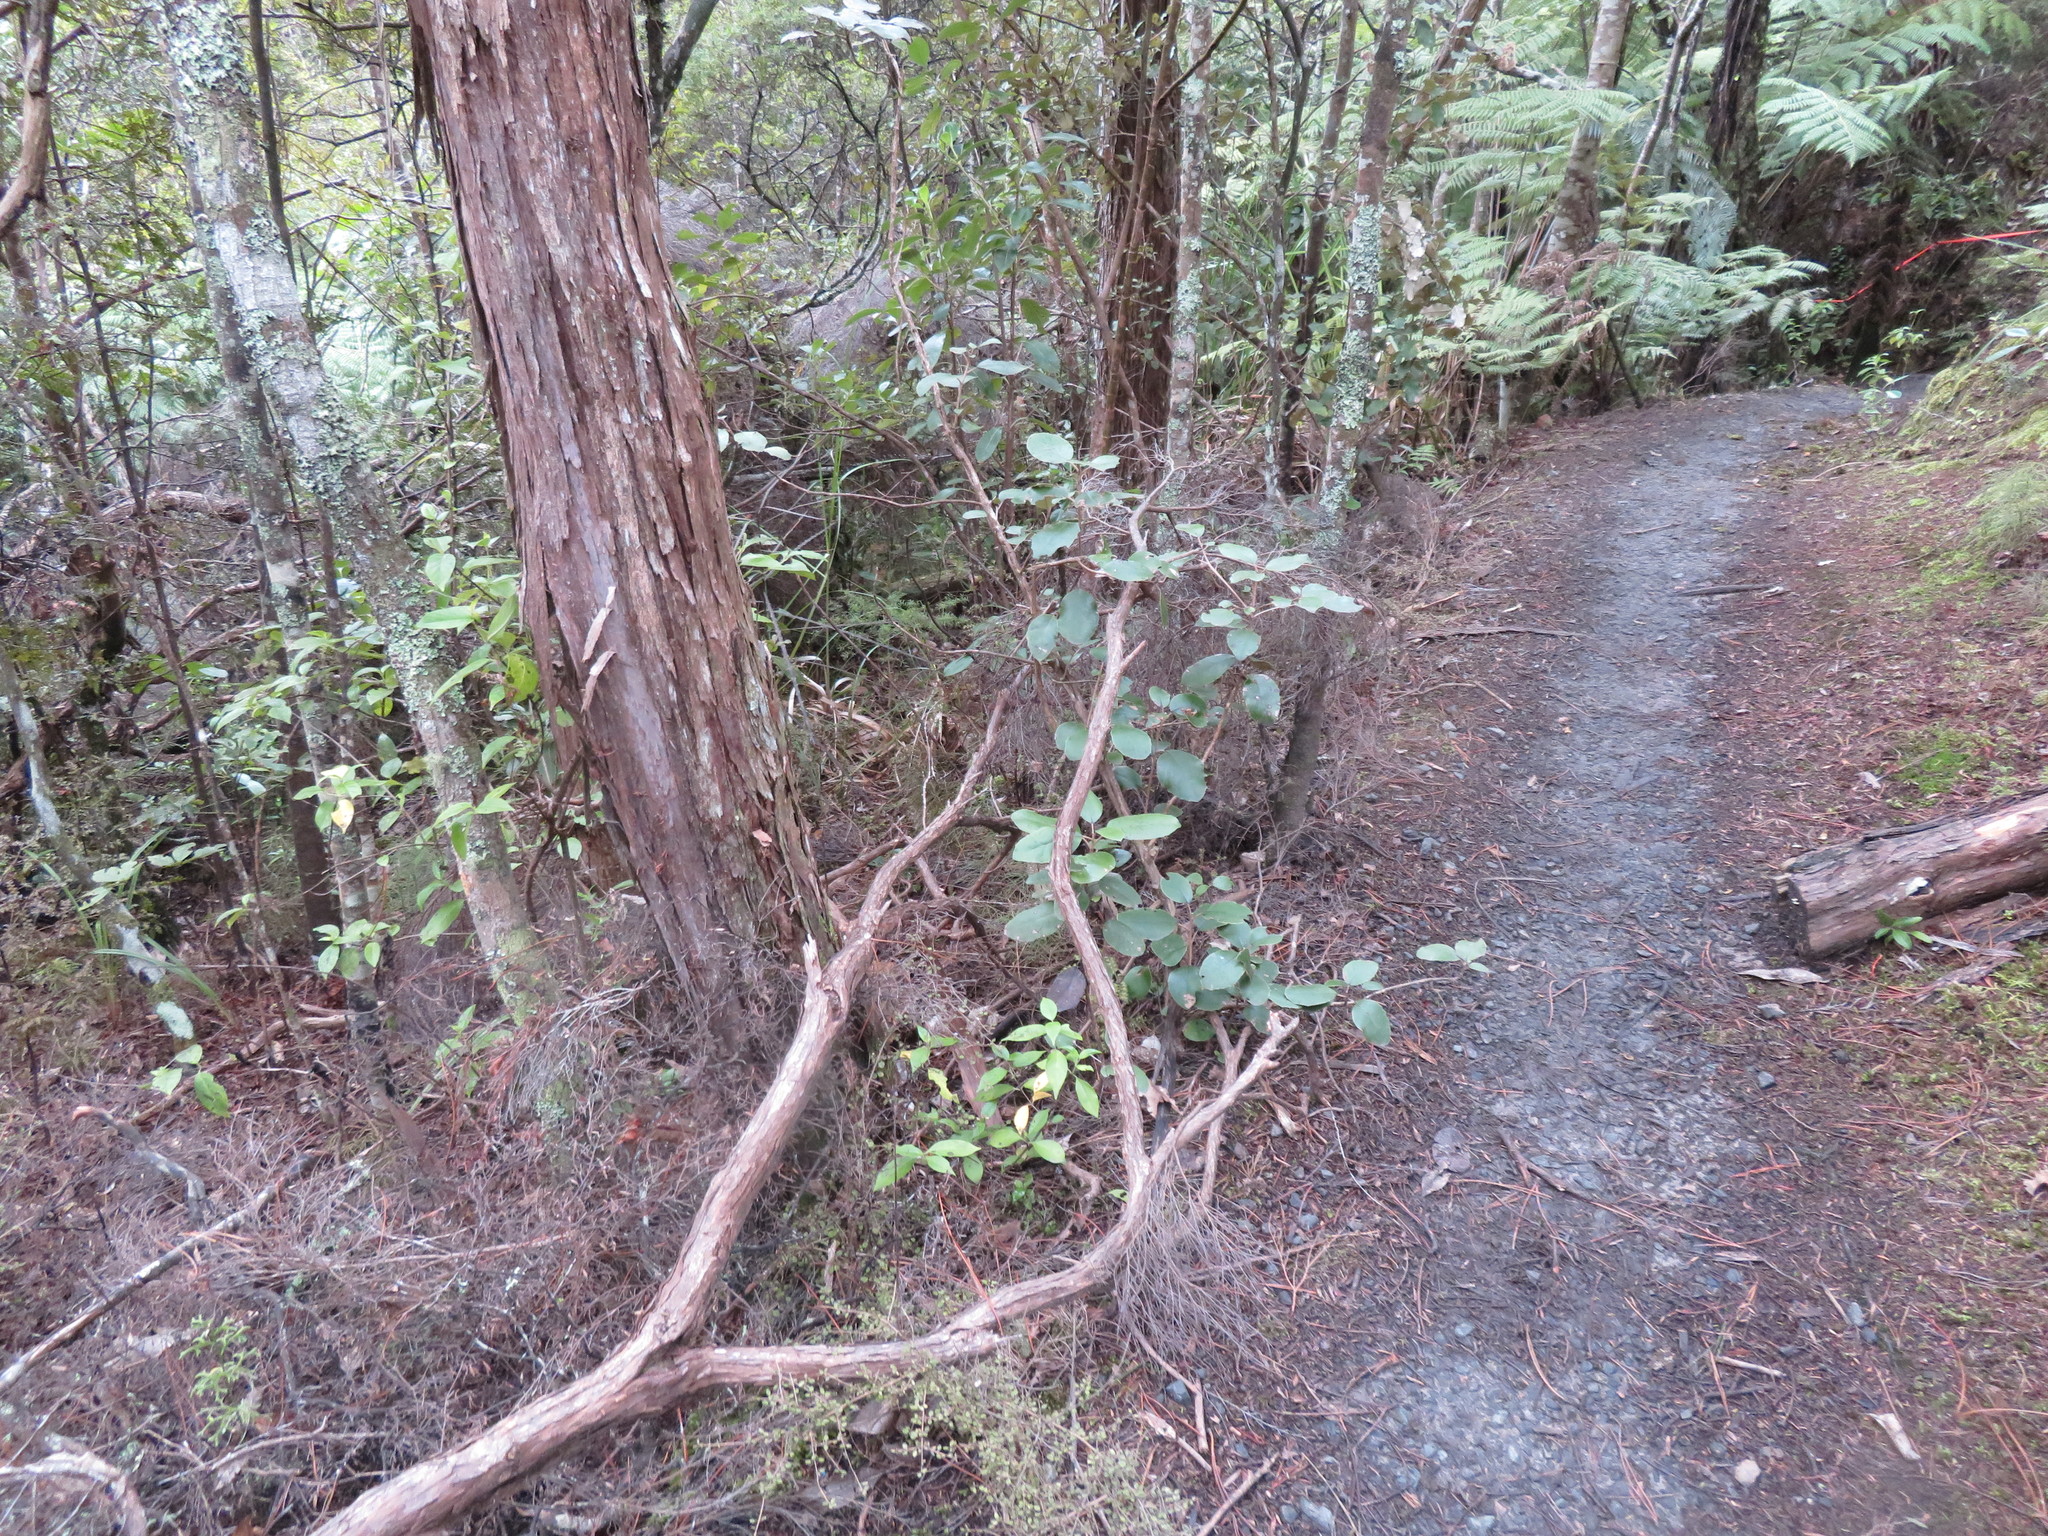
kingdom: Plantae
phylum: Tracheophyta
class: Magnoliopsida
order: Gentianales
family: Loganiaceae
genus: Geniostoma
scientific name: Geniostoma ligustrifolium
